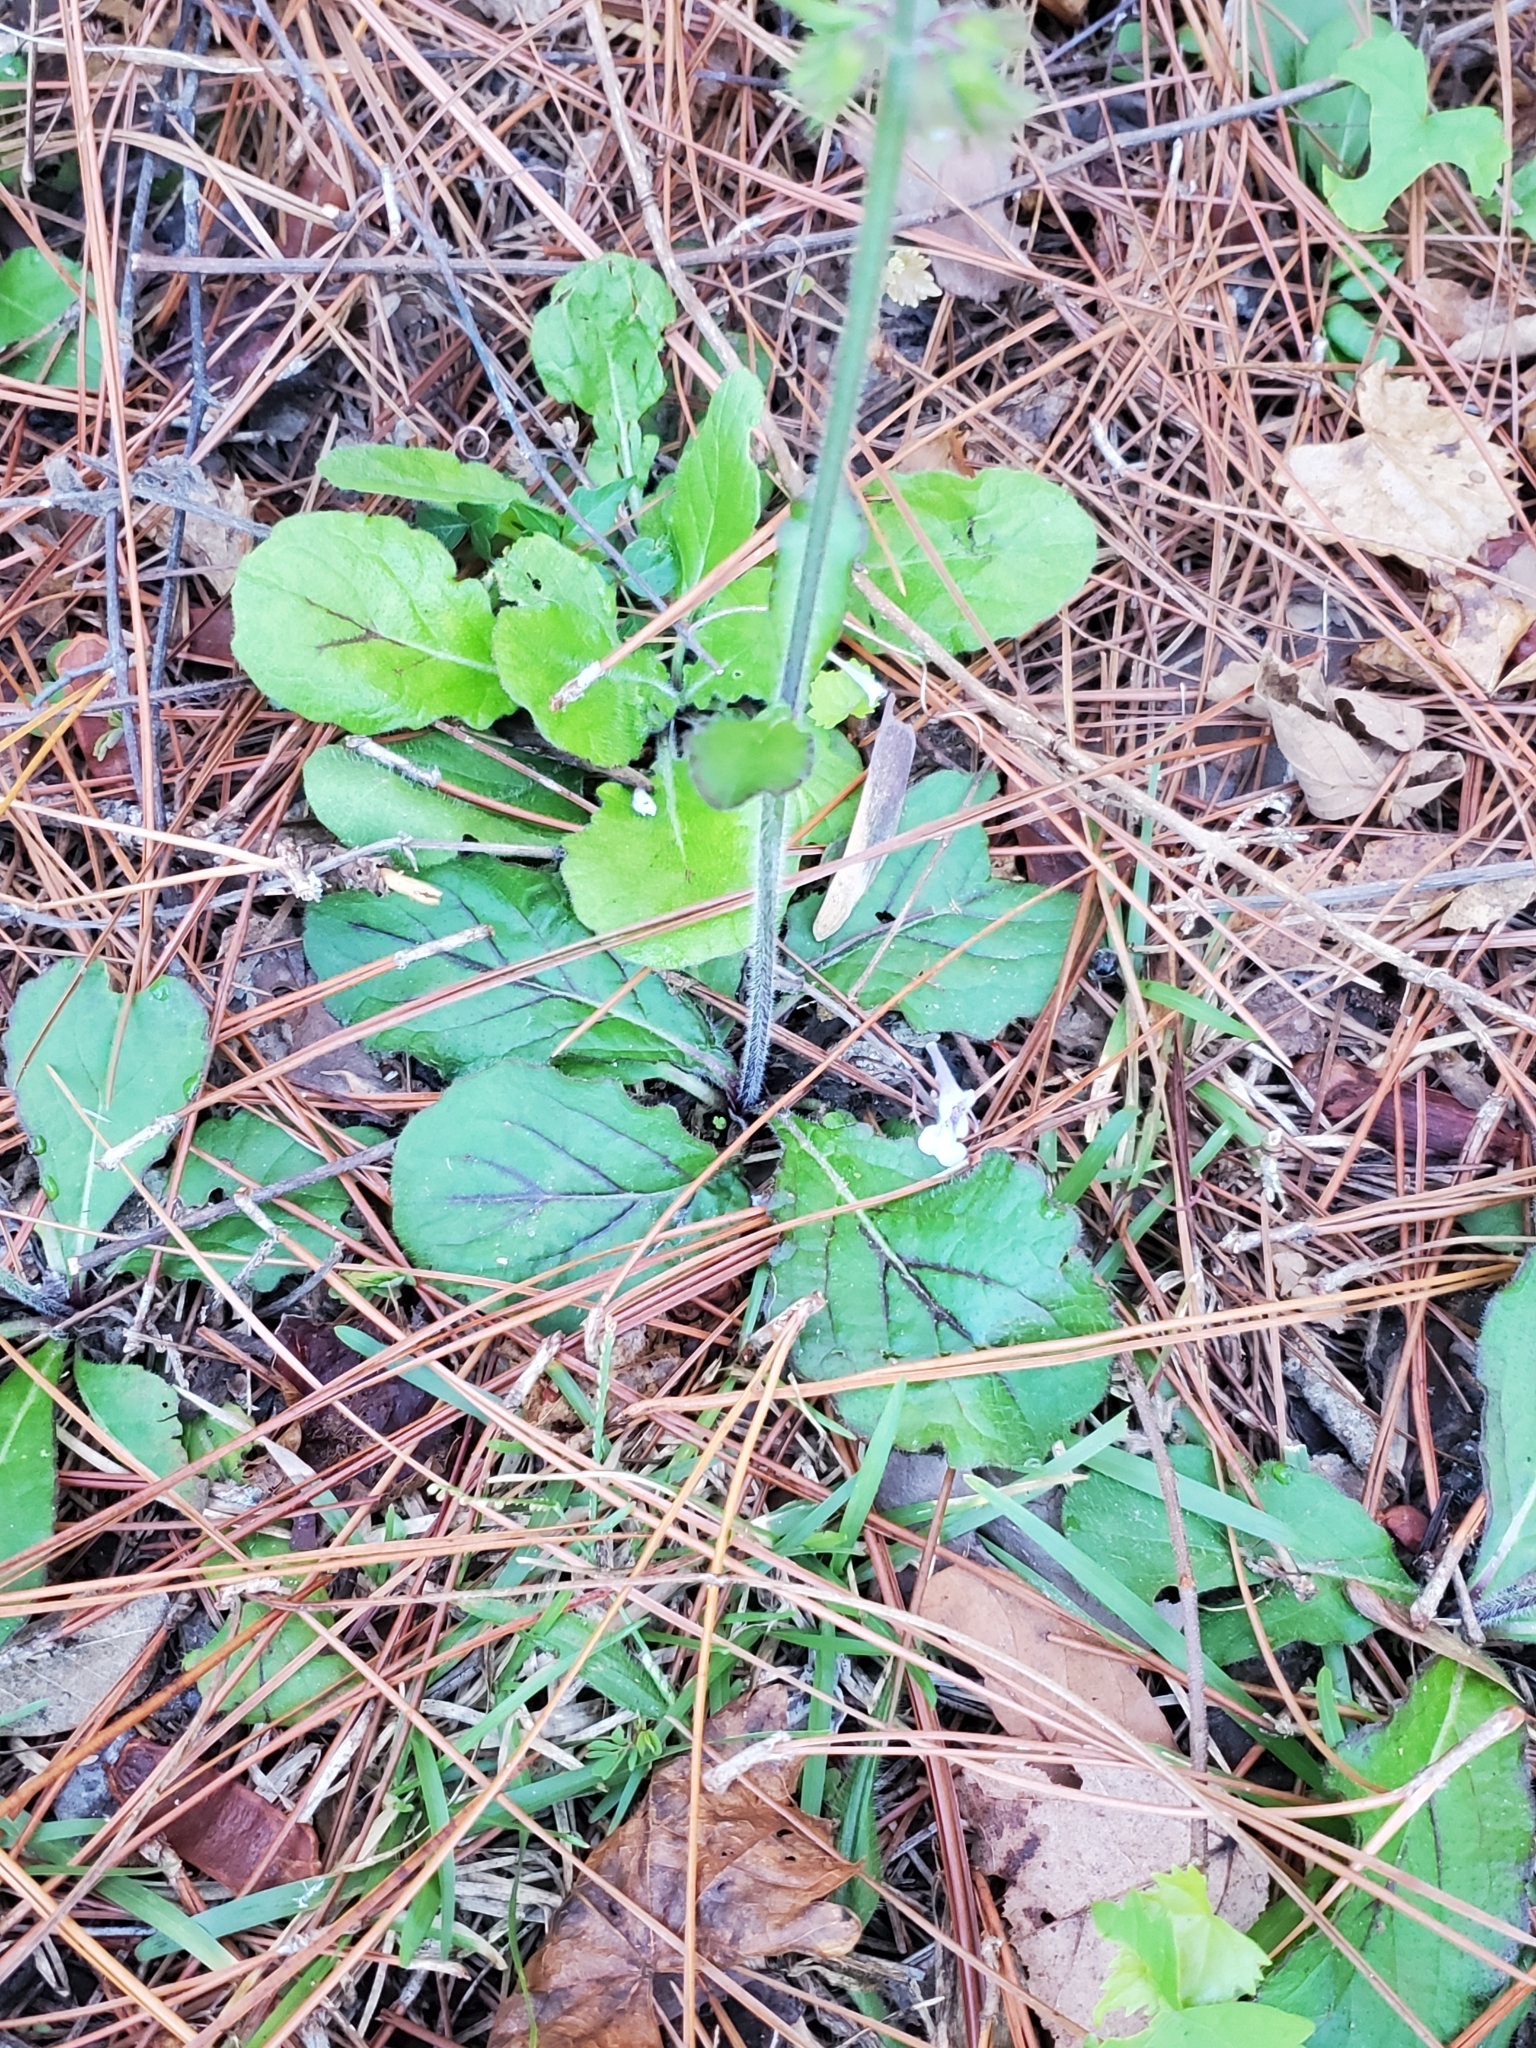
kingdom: Plantae
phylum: Tracheophyta
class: Magnoliopsida
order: Lamiales
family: Lamiaceae
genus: Salvia
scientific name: Salvia lyrata
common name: Cancerweed
